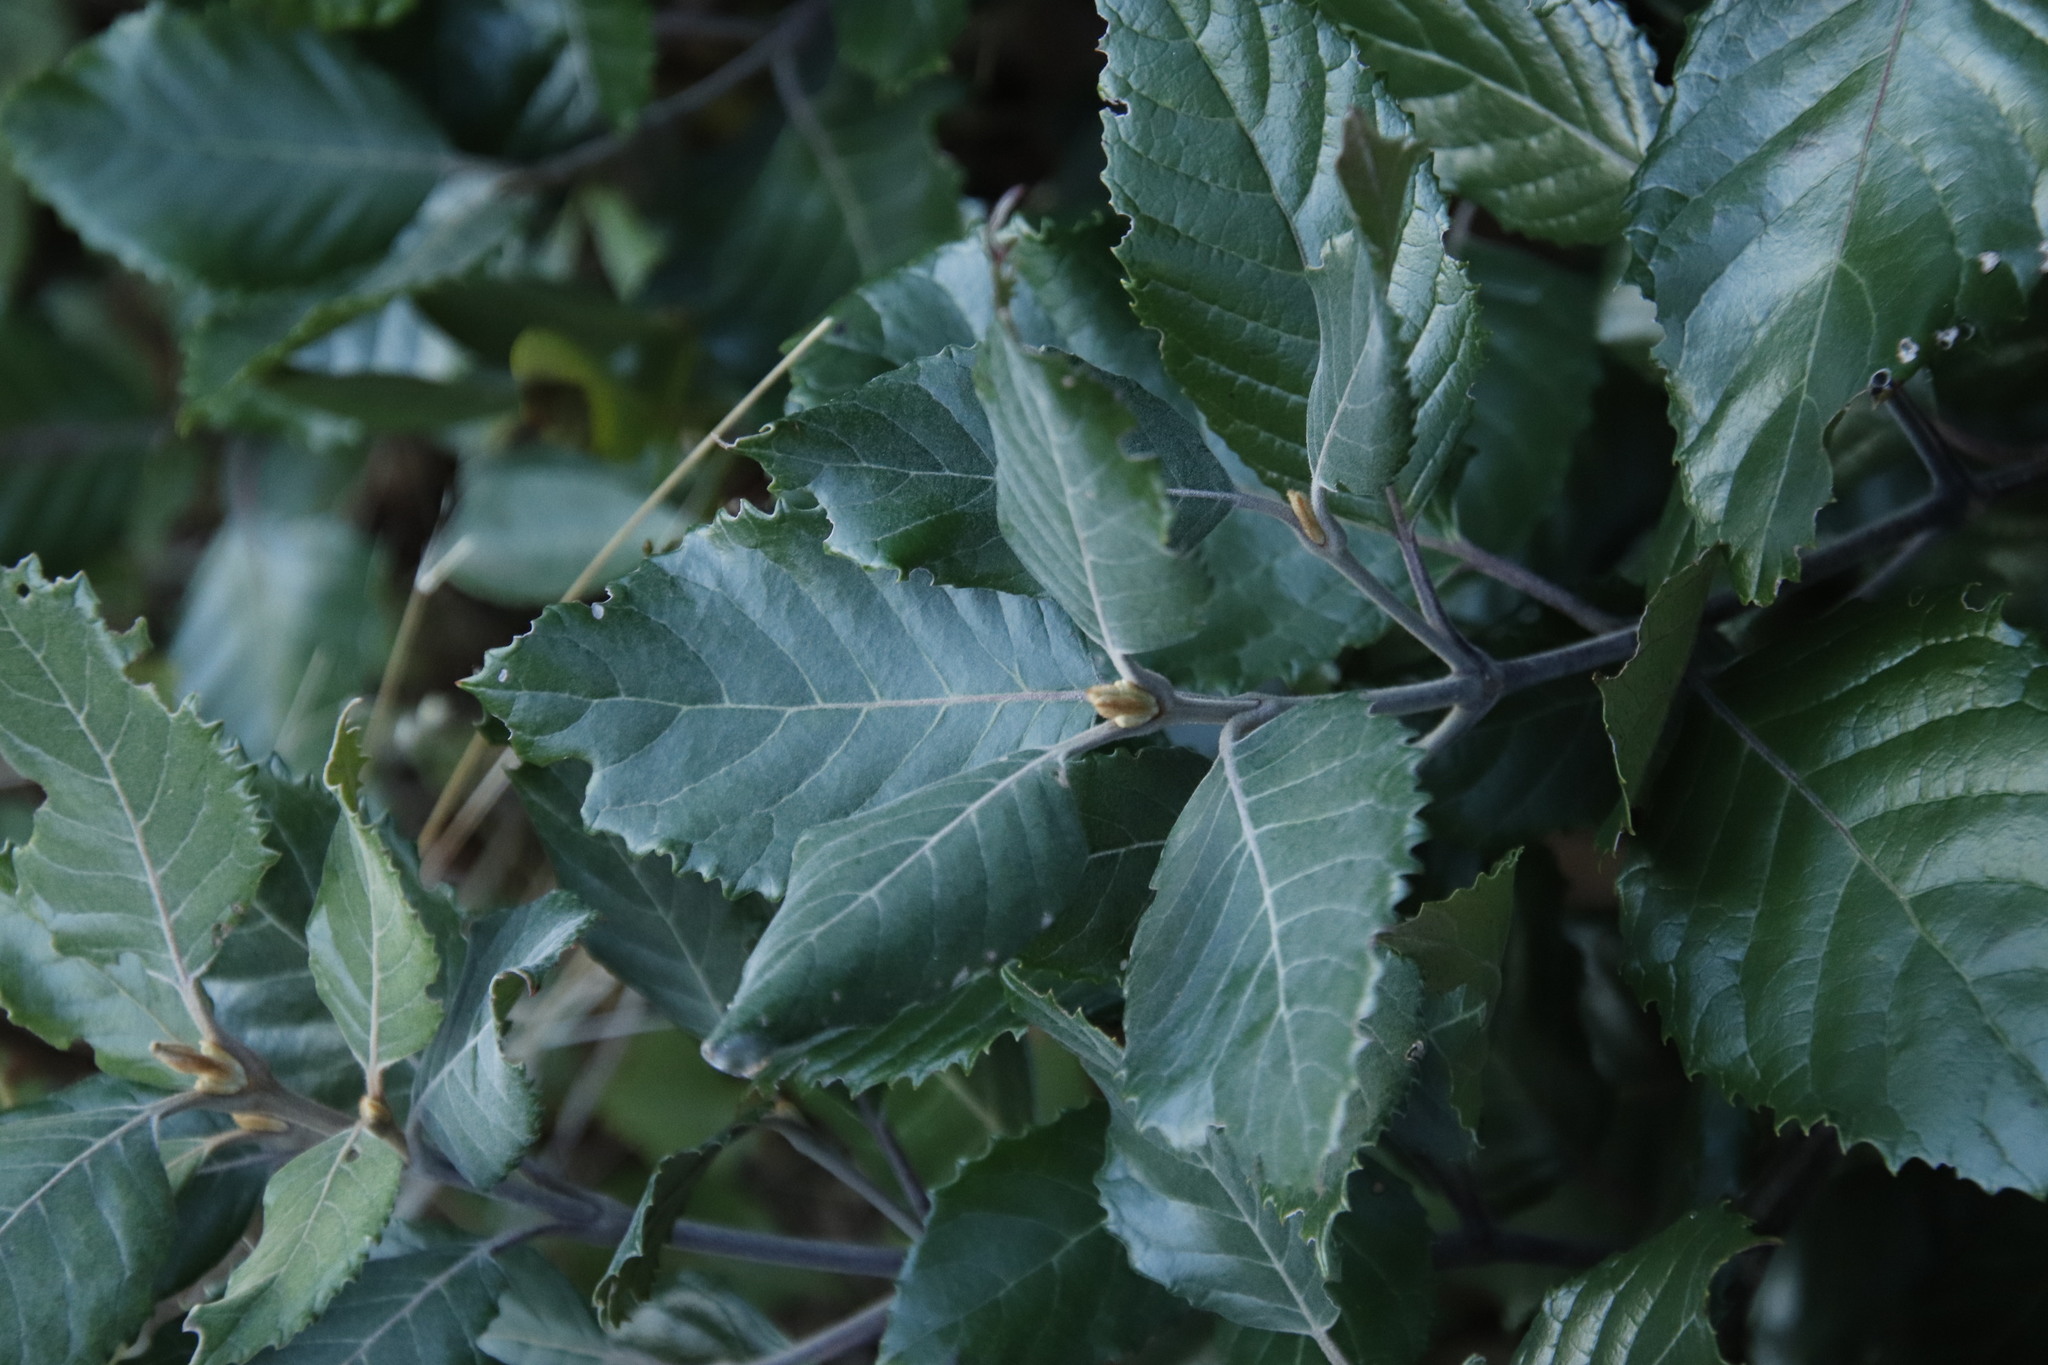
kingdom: Plantae
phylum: Tracheophyta
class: Magnoliopsida
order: Cornales
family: Curtisiaceae
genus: Curtisia
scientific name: Curtisia dentata
